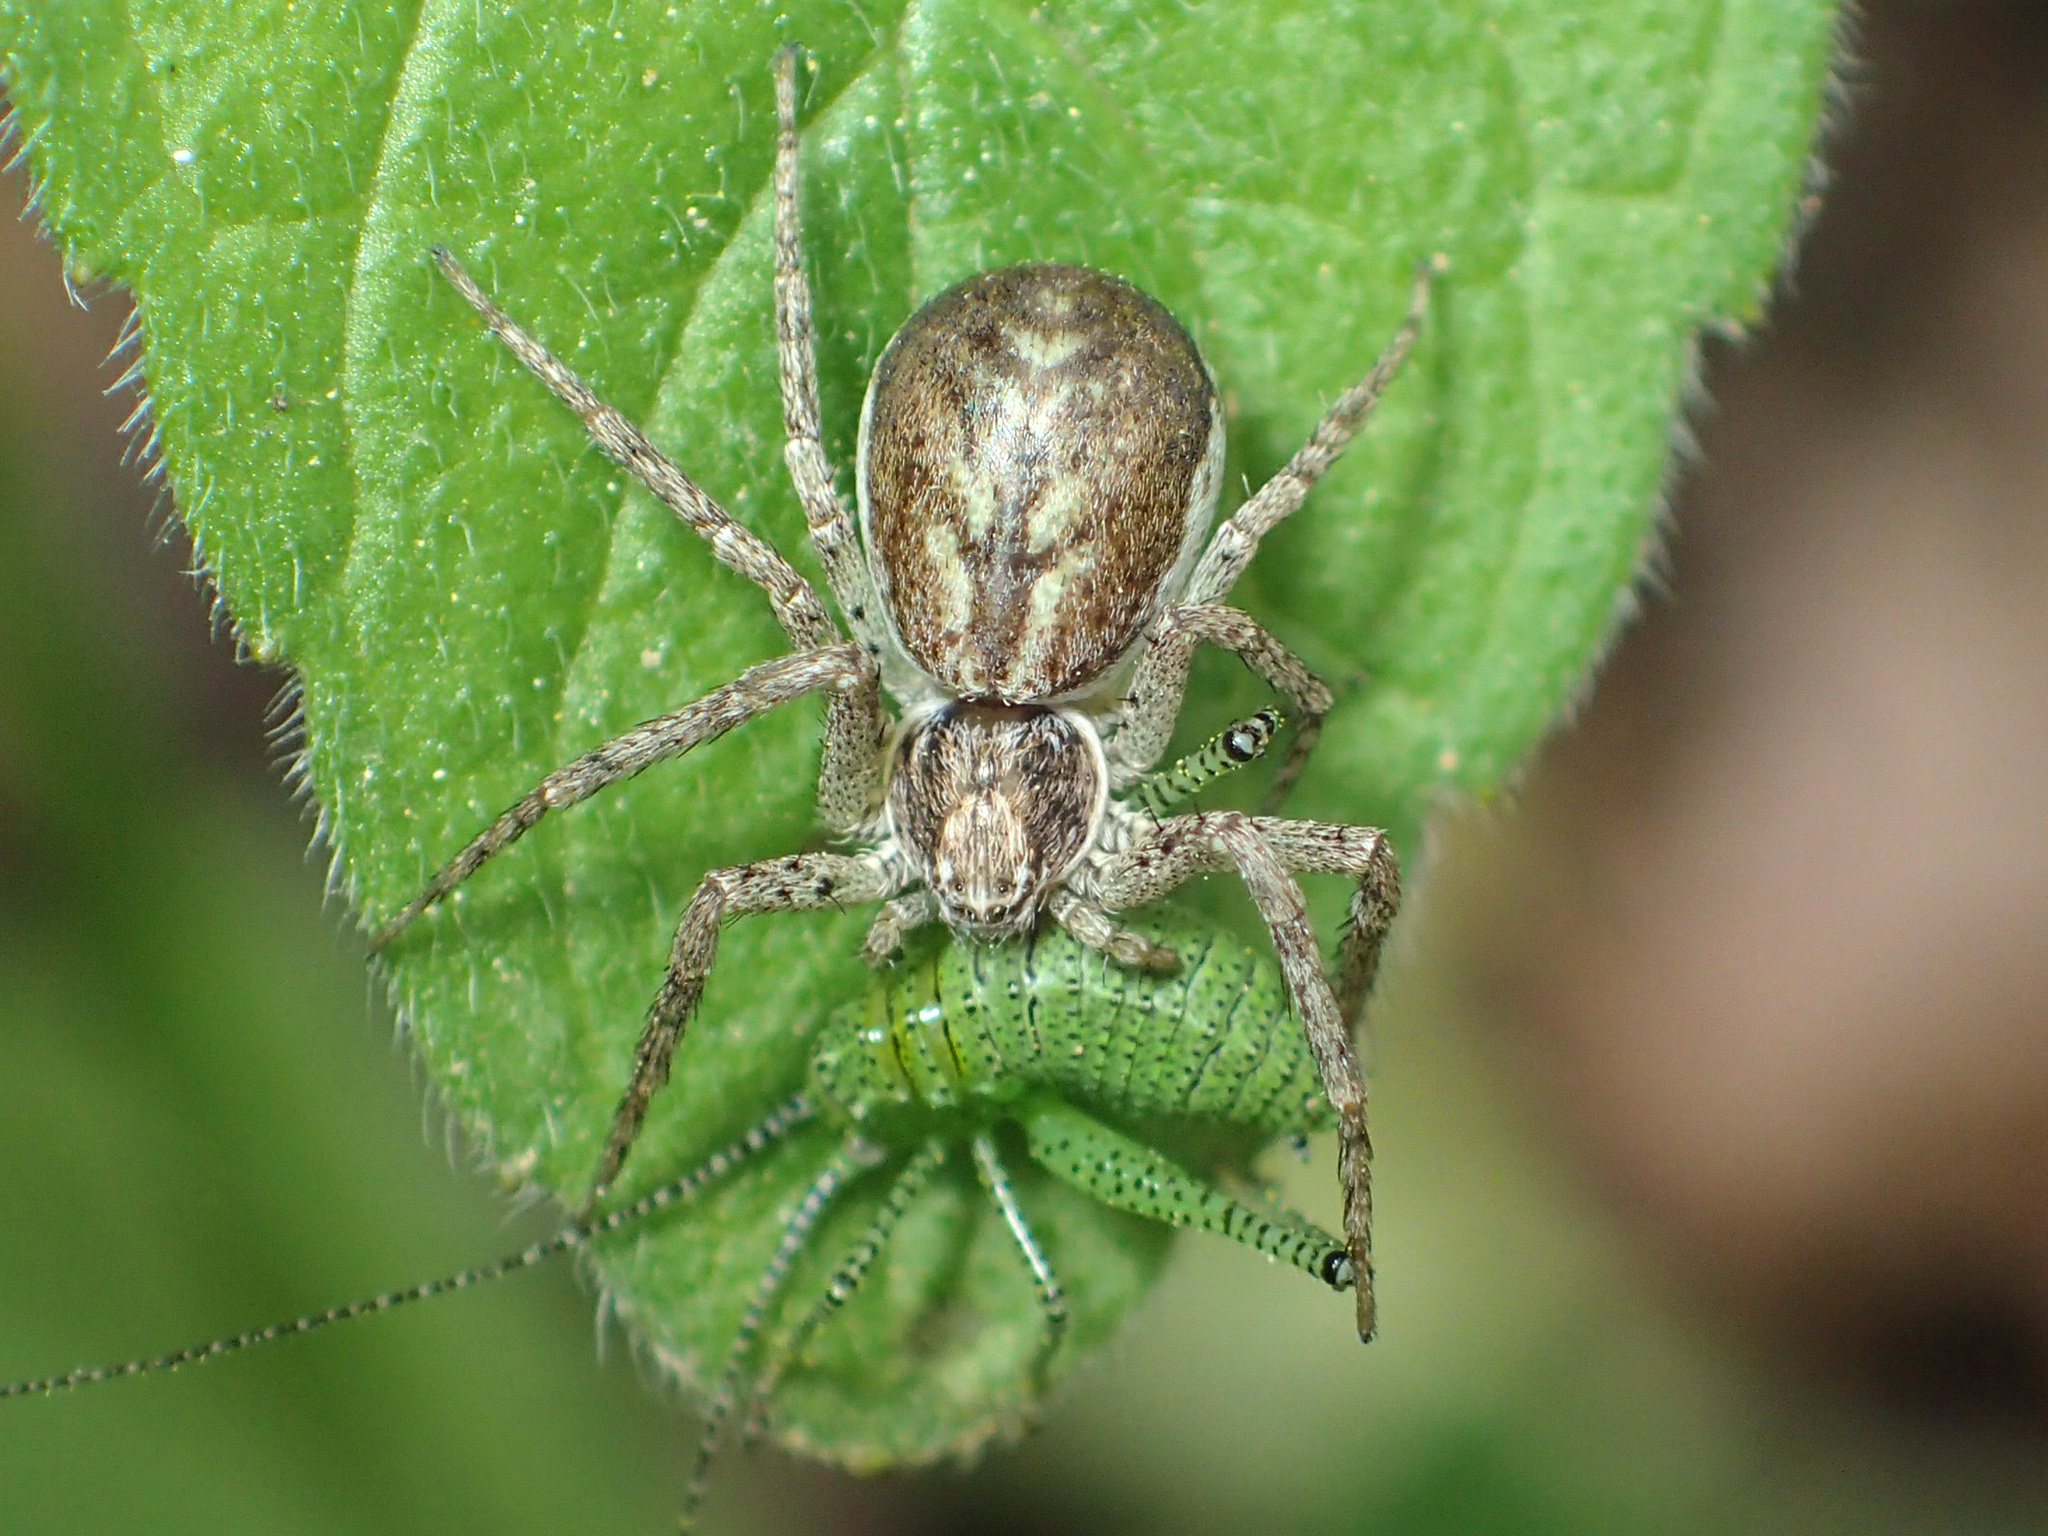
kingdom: Animalia
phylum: Arthropoda
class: Arachnida
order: Araneae
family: Philodromidae
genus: Philodromus
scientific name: Philodromus dispar
